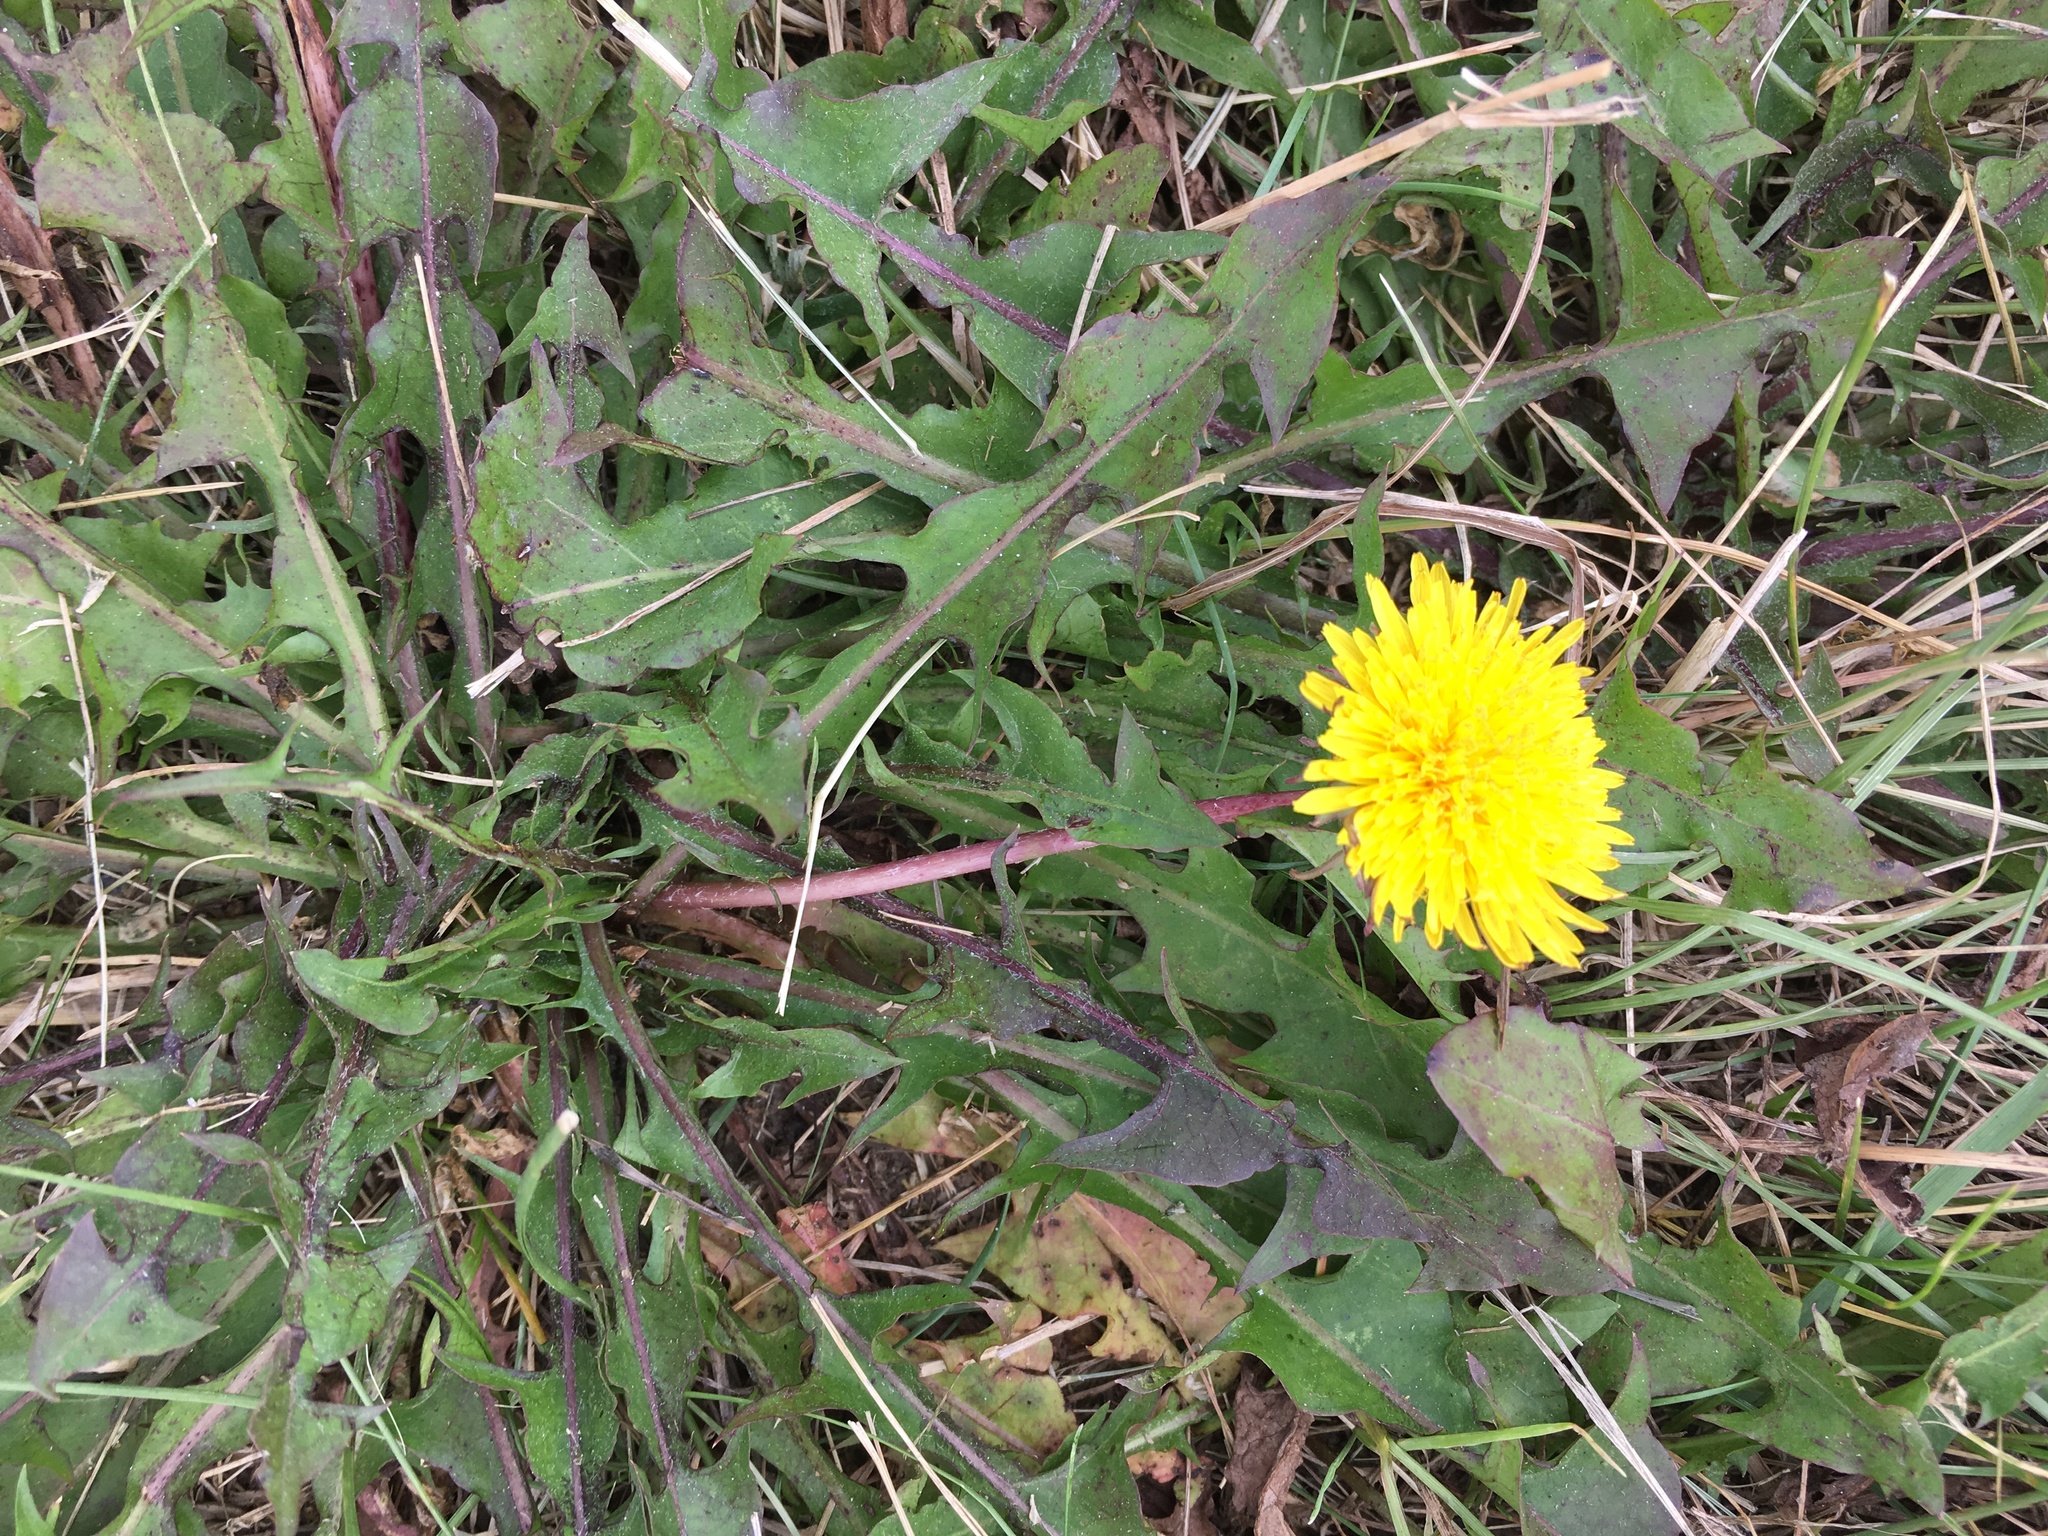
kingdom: Plantae
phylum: Tracheophyta
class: Magnoliopsida
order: Asterales
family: Asteraceae
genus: Taraxacum
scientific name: Taraxacum officinale
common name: Common dandelion
